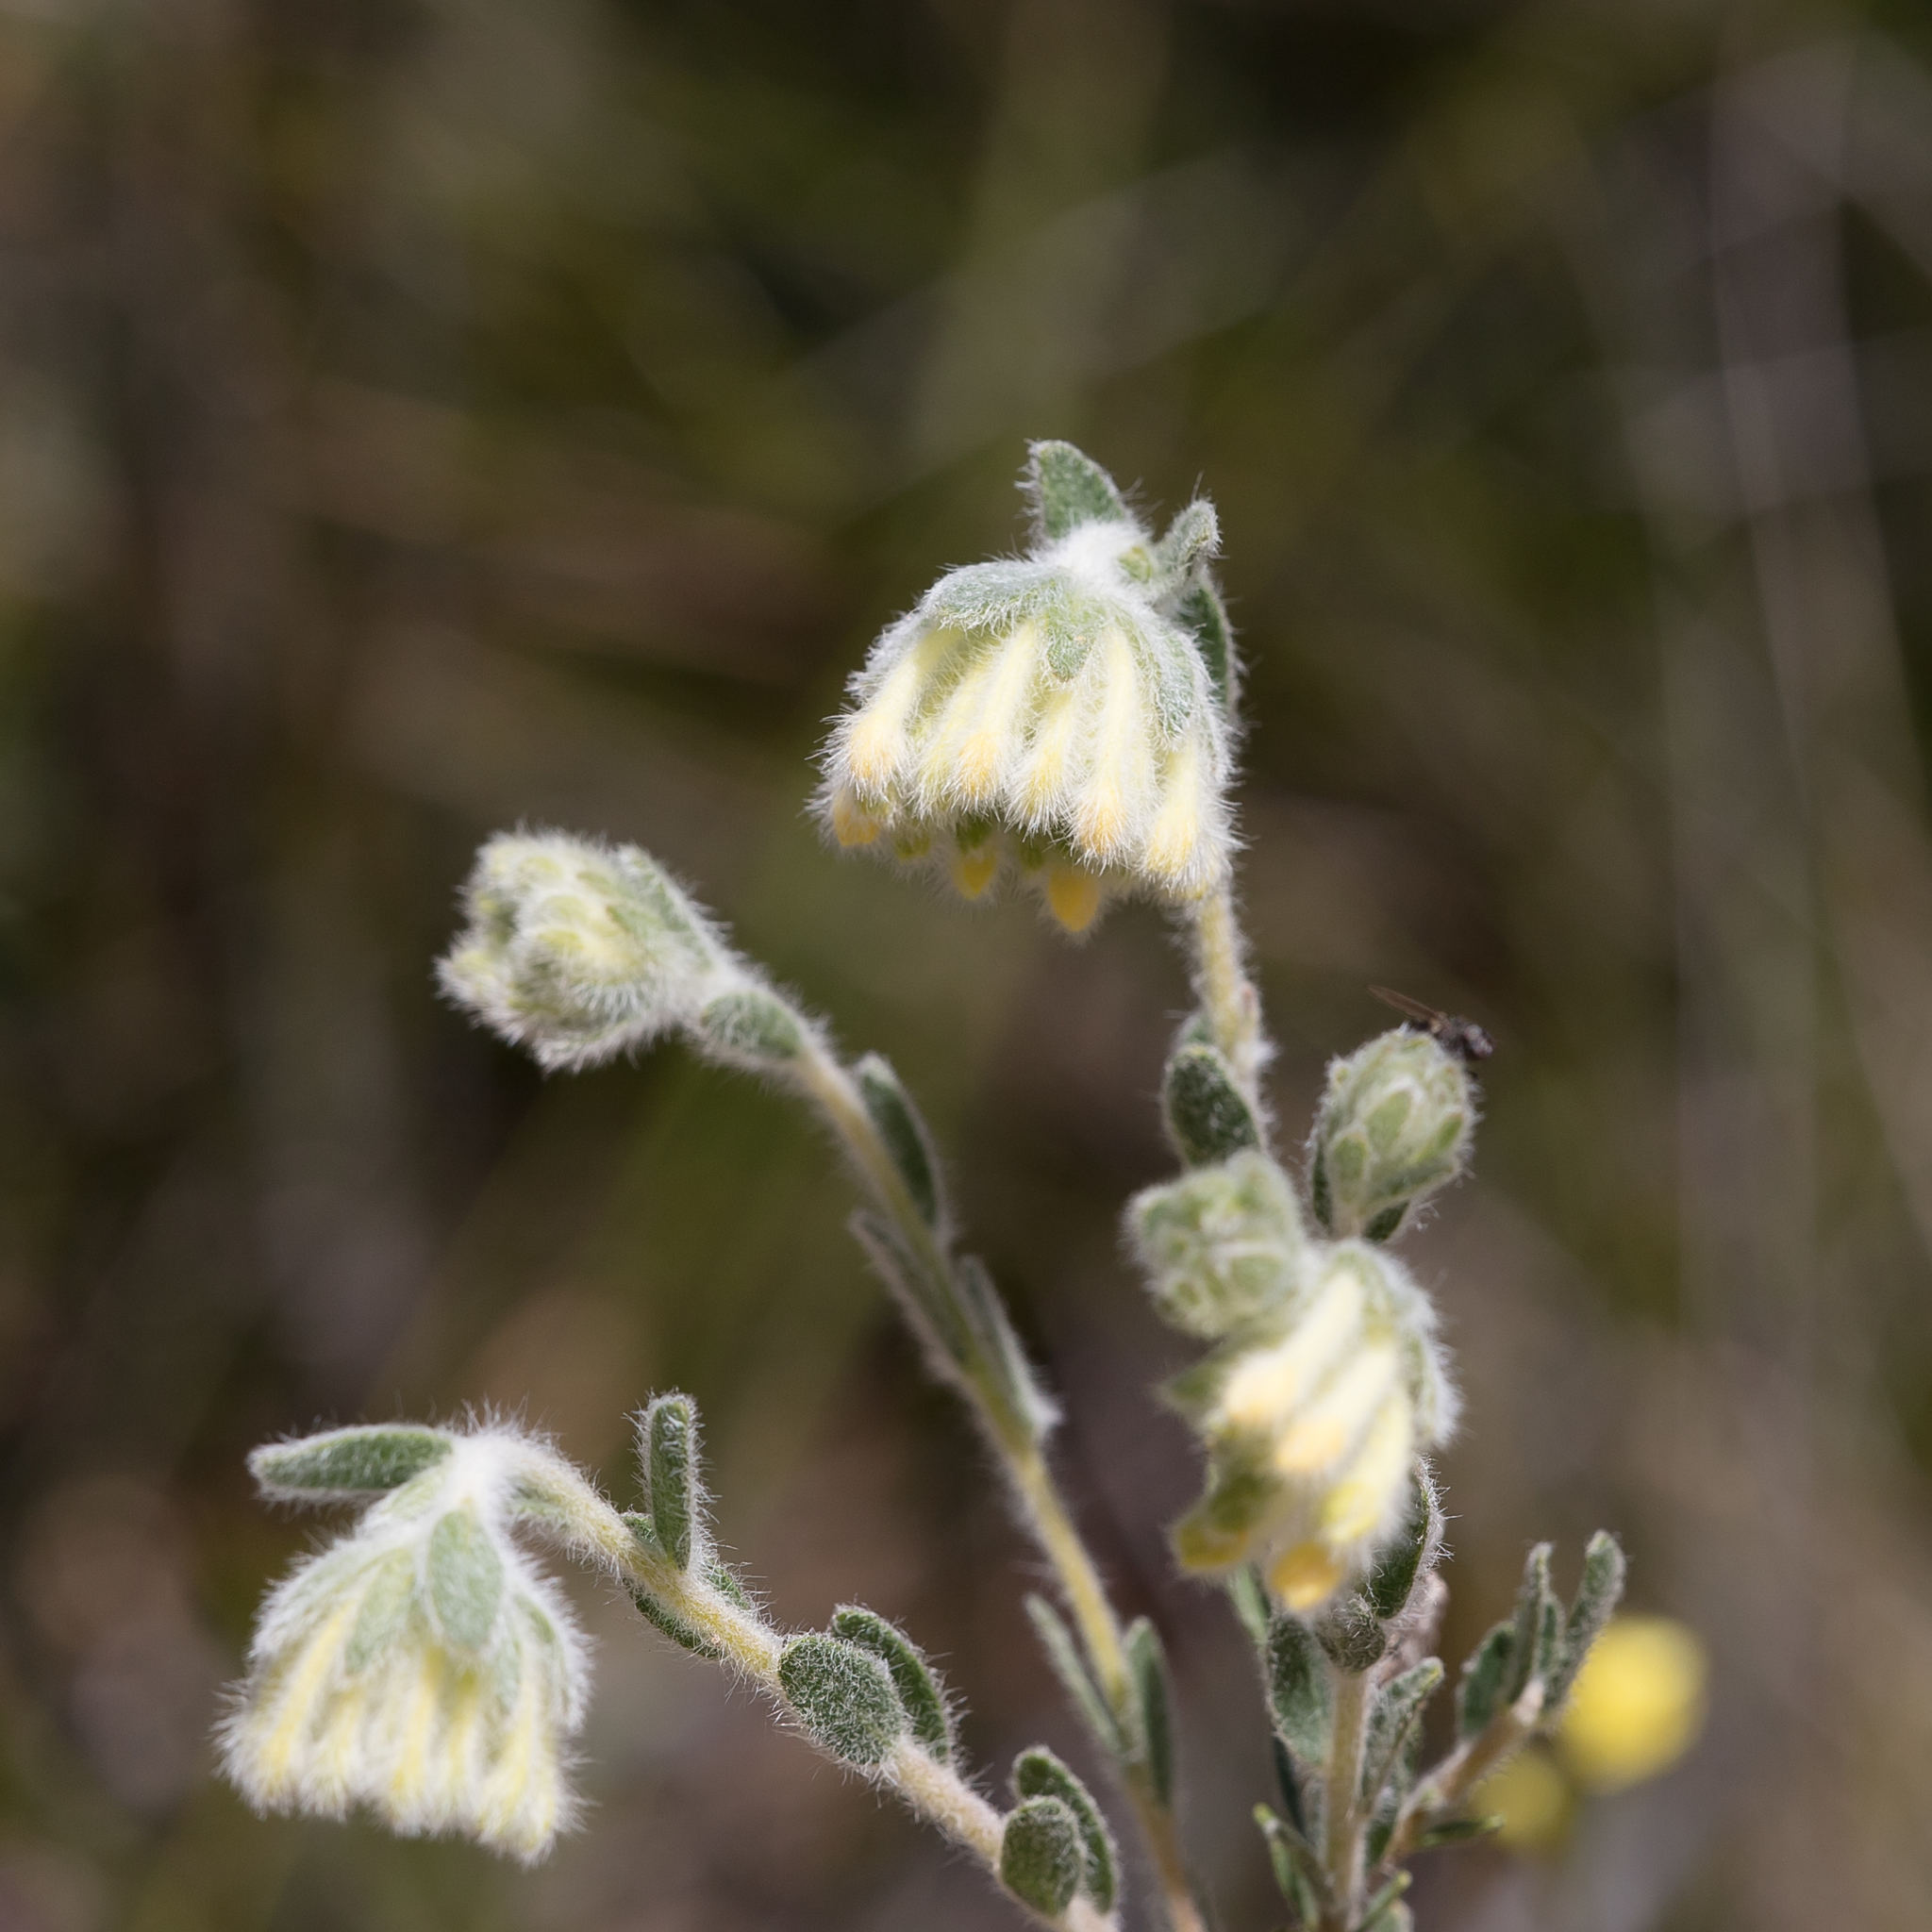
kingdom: Plantae
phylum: Tracheophyta
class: Magnoliopsida
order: Malvales
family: Thymelaeaceae
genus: Pimelea
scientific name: Pimelea octophylla
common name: Woolly riceflower
